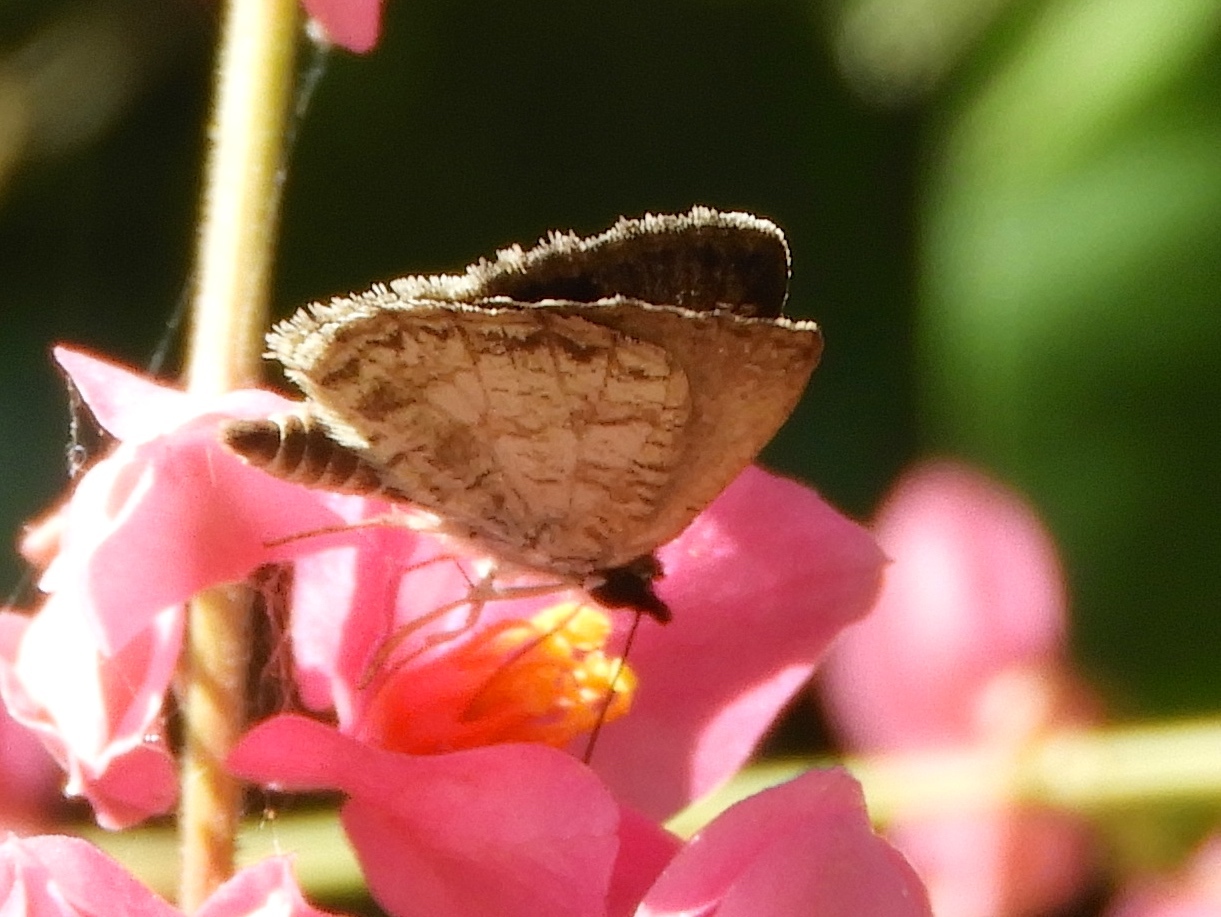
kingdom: Animalia
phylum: Arthropoda
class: Insecta
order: Lepidoptera
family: Hesperiidae
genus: Zopyrion
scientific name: Zopyrion sandace
